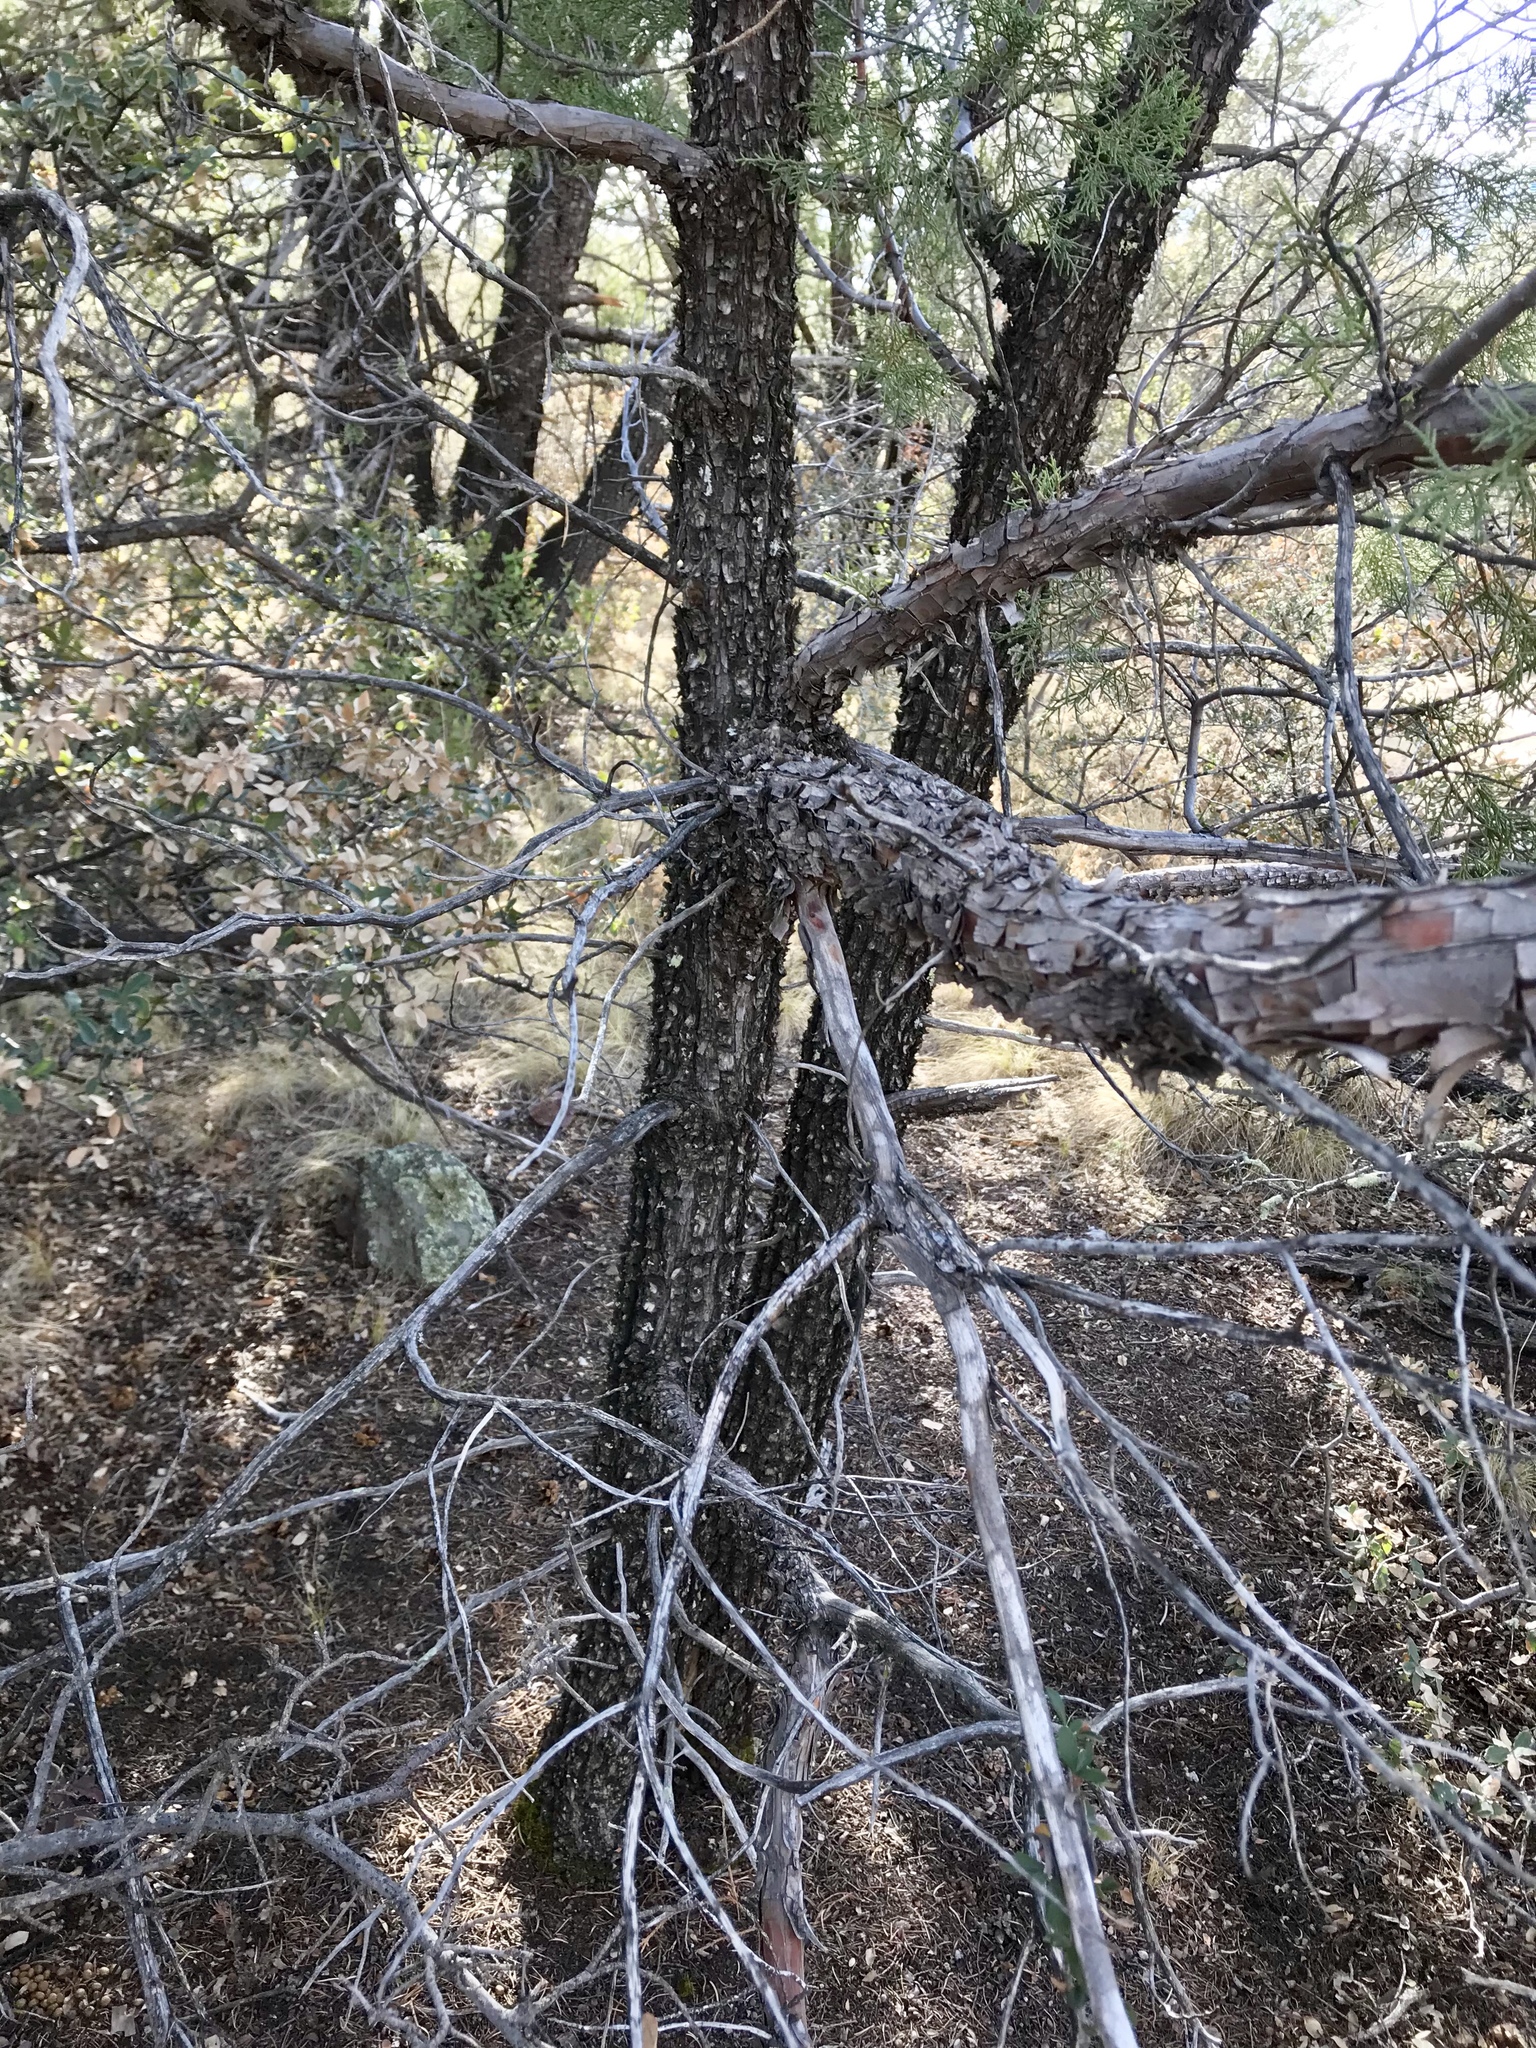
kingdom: Plantae
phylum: Tracheophyta
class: Pinopsida
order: Pinales
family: Cupressaceae
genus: Juniperus
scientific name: Juniperus deppeana
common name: Alligator juniper
